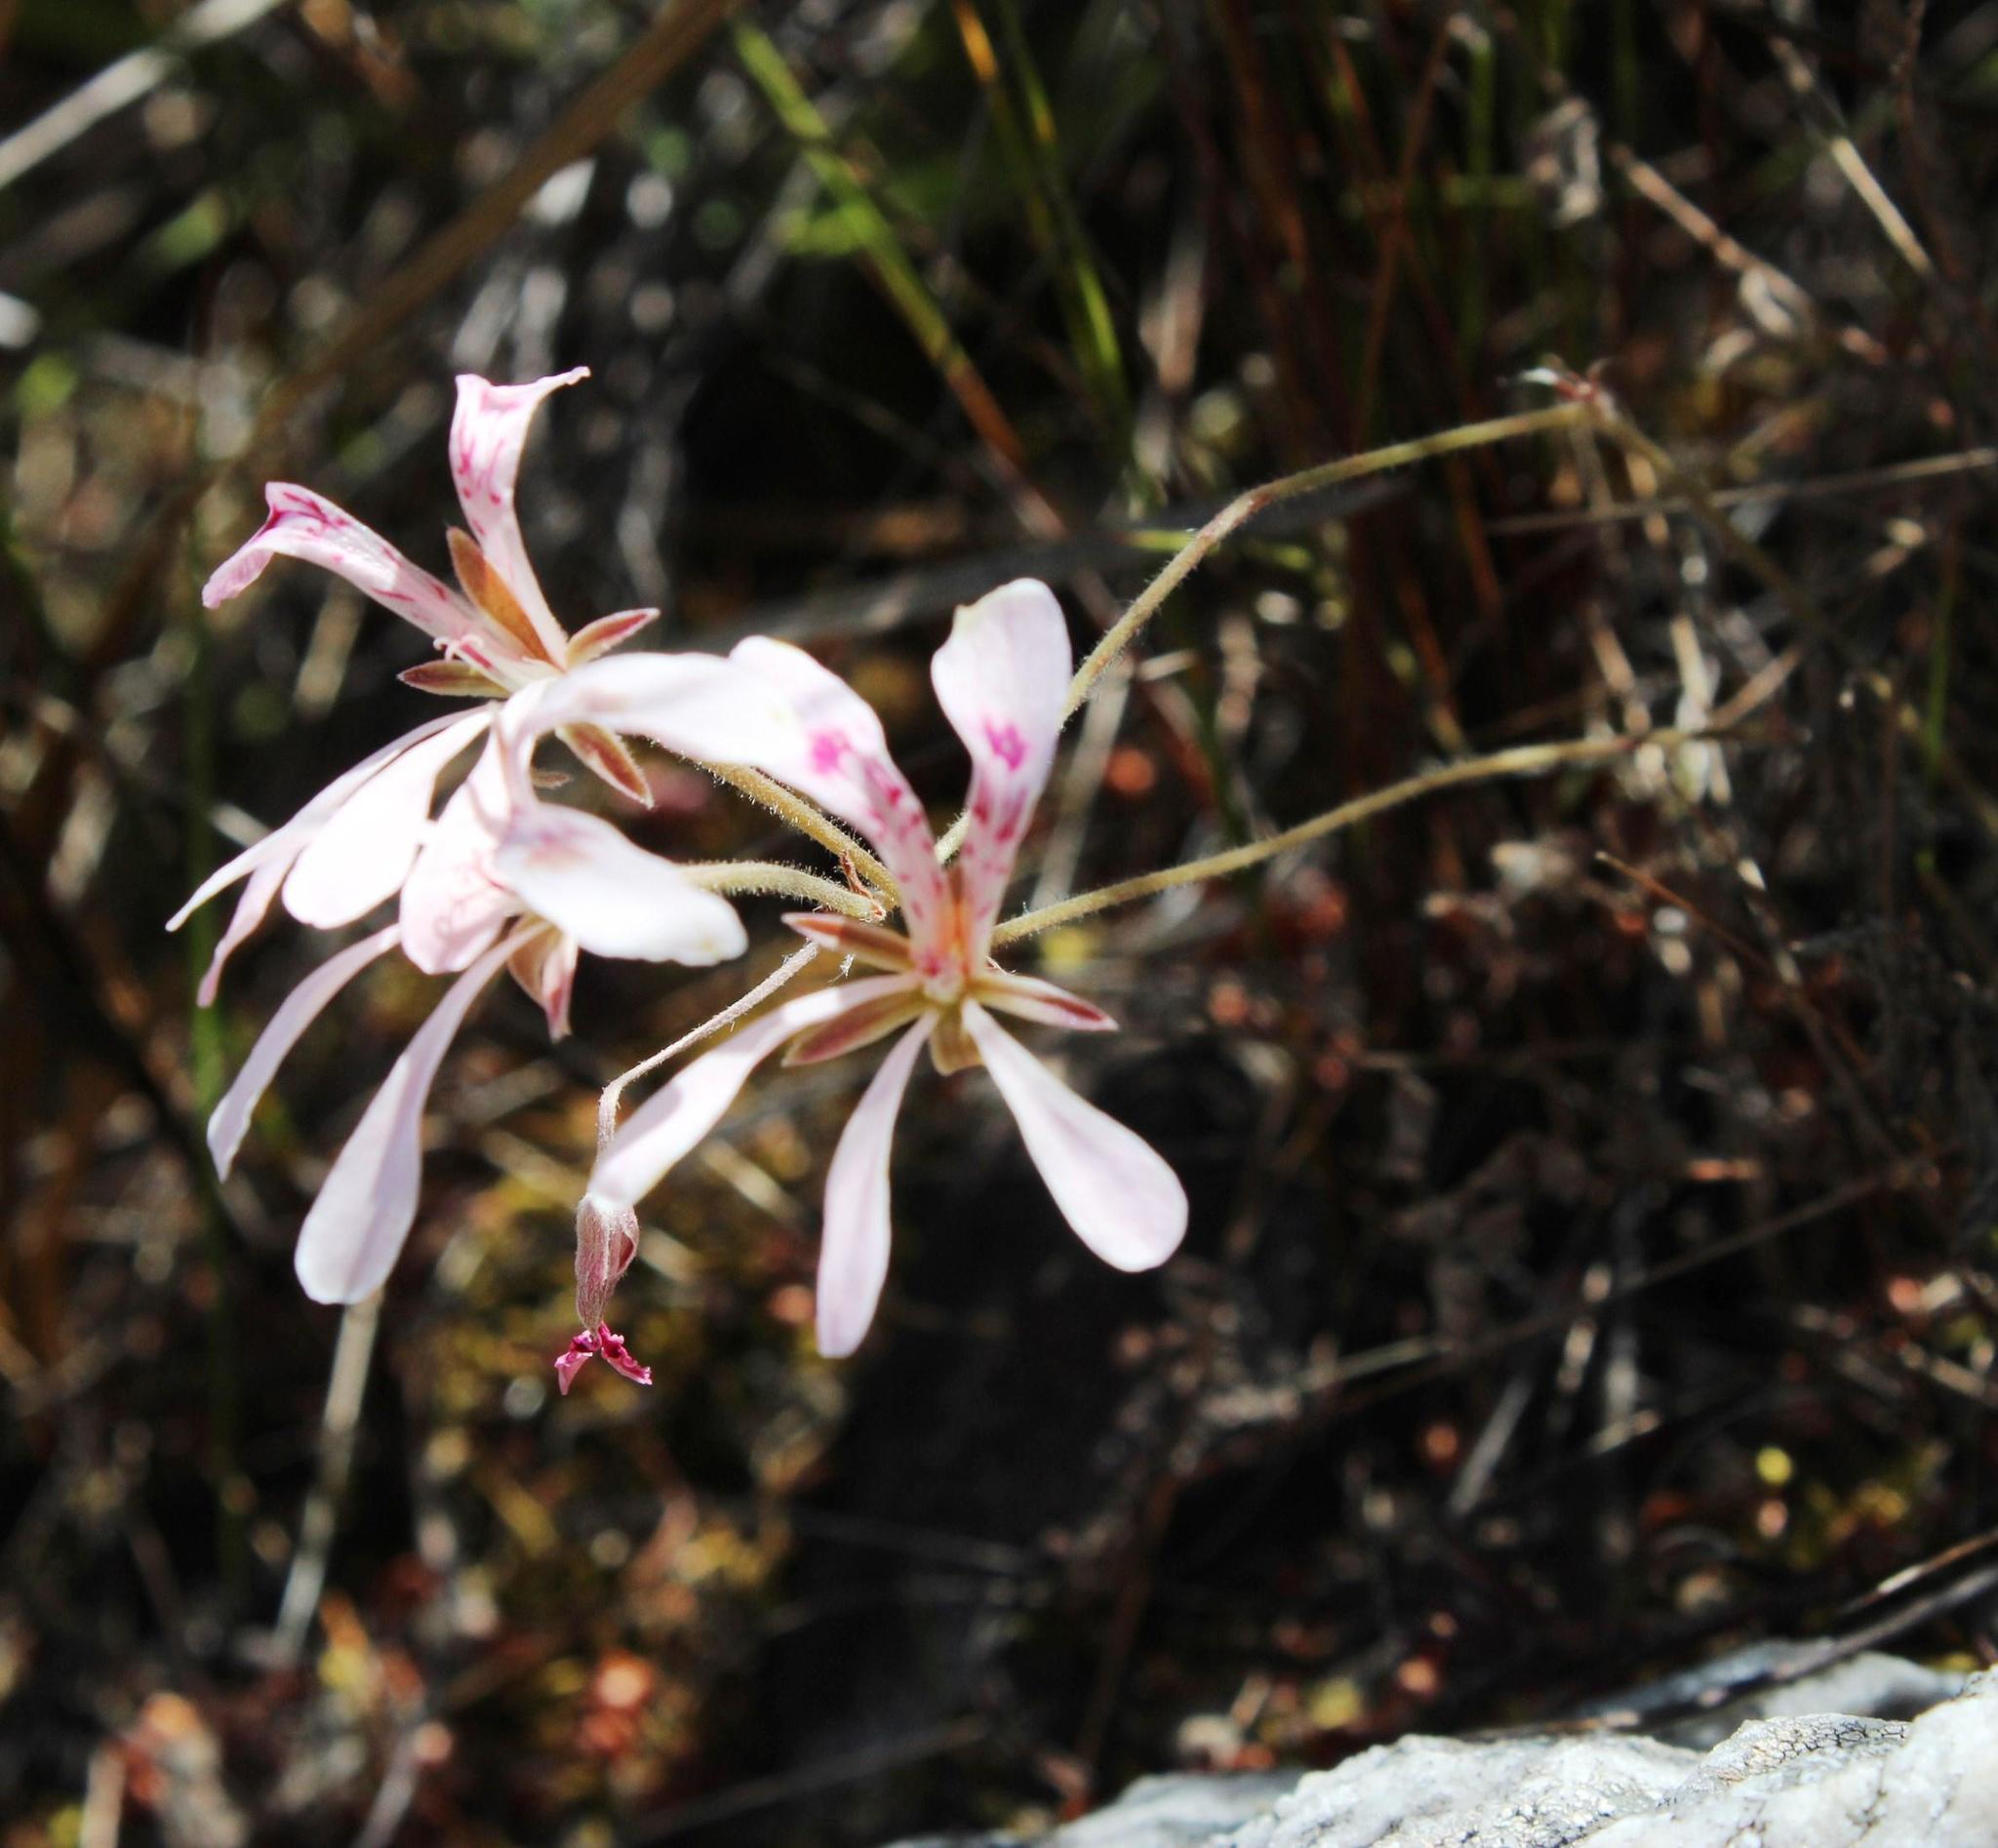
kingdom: Plantae
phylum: Tracheophyta
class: Magnoliopsida
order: Geraniales
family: Geraniaceae
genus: Pelargonium
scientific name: Pelargonium pinnatum
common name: Pinnated pelargonium
